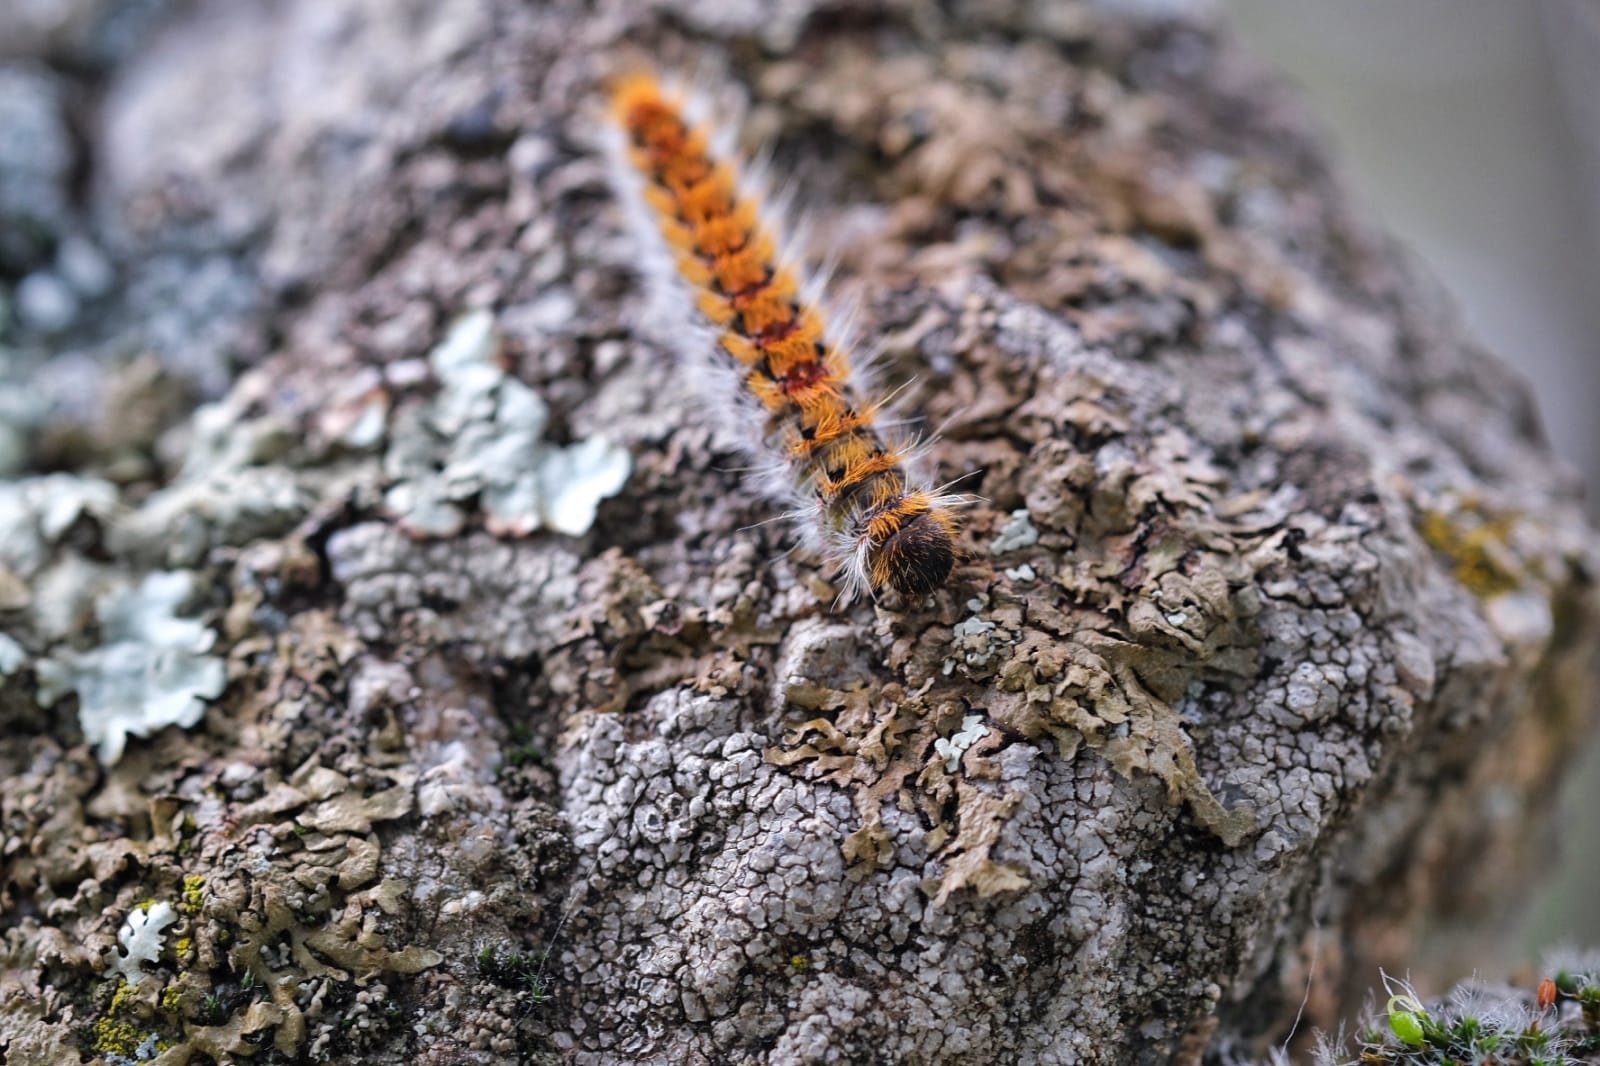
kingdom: Animalia
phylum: Arthropoda
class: Insecta
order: Lepidoptera
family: Notodontidae
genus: Thaumetopoea
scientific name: Thaumetopoea pityocampa
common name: Pine processionary
